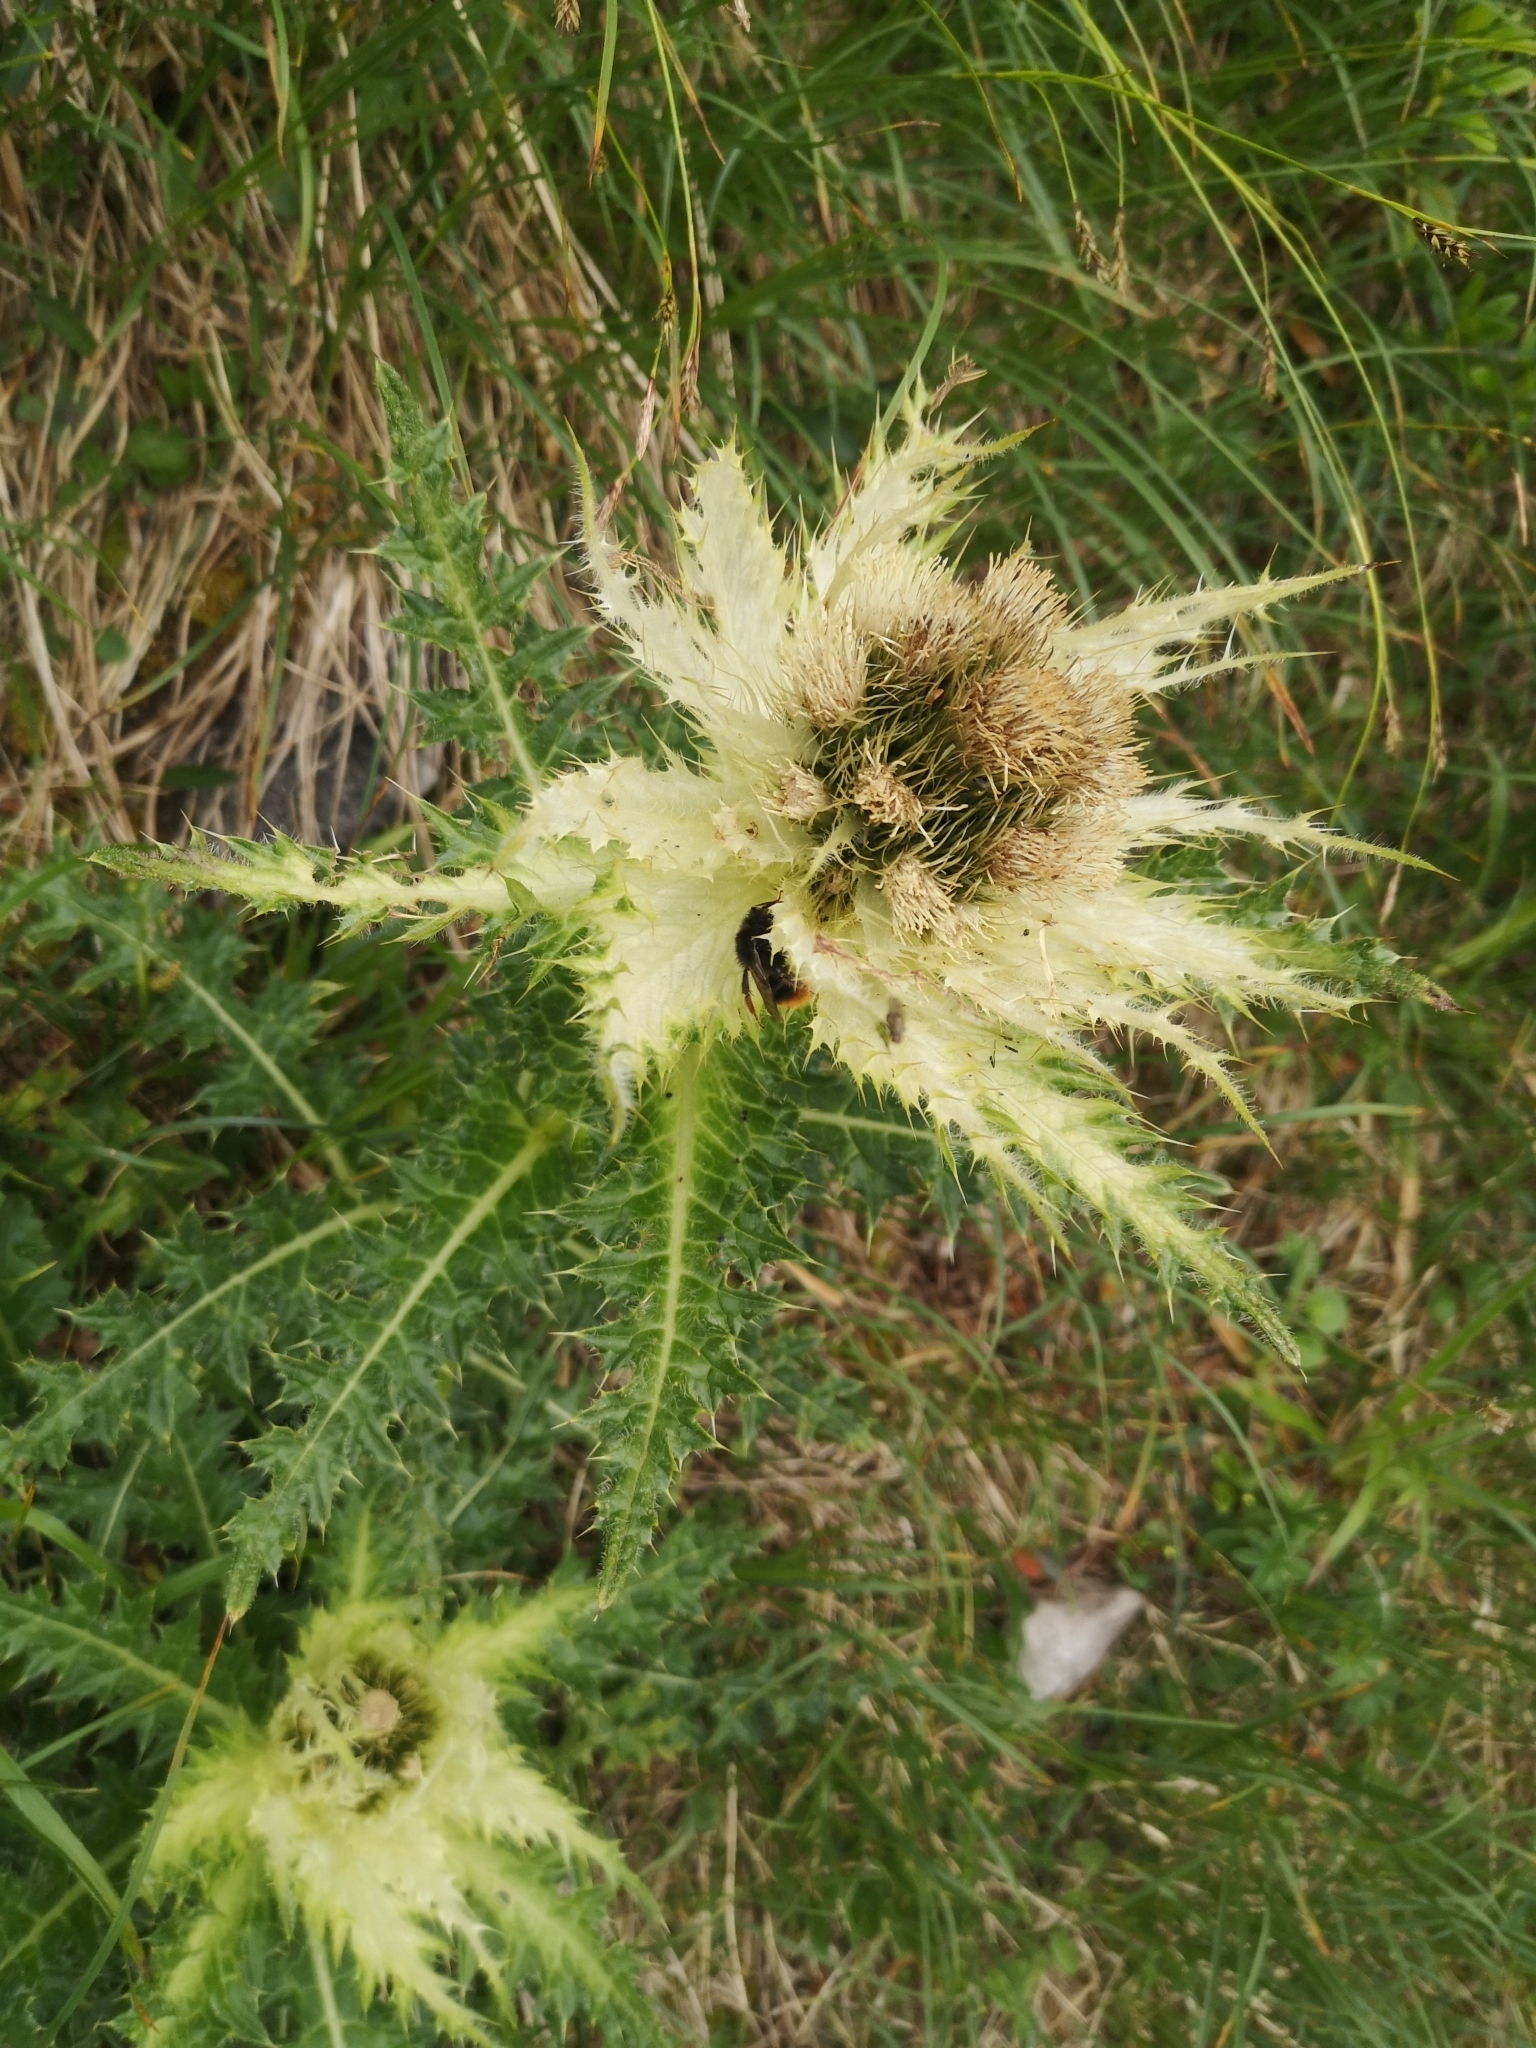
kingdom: Plantae
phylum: Tracheophyta
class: Magnoliopsida
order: Asterales
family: Asteraceae
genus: Cirsium
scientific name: Cirsium spinosissimum
